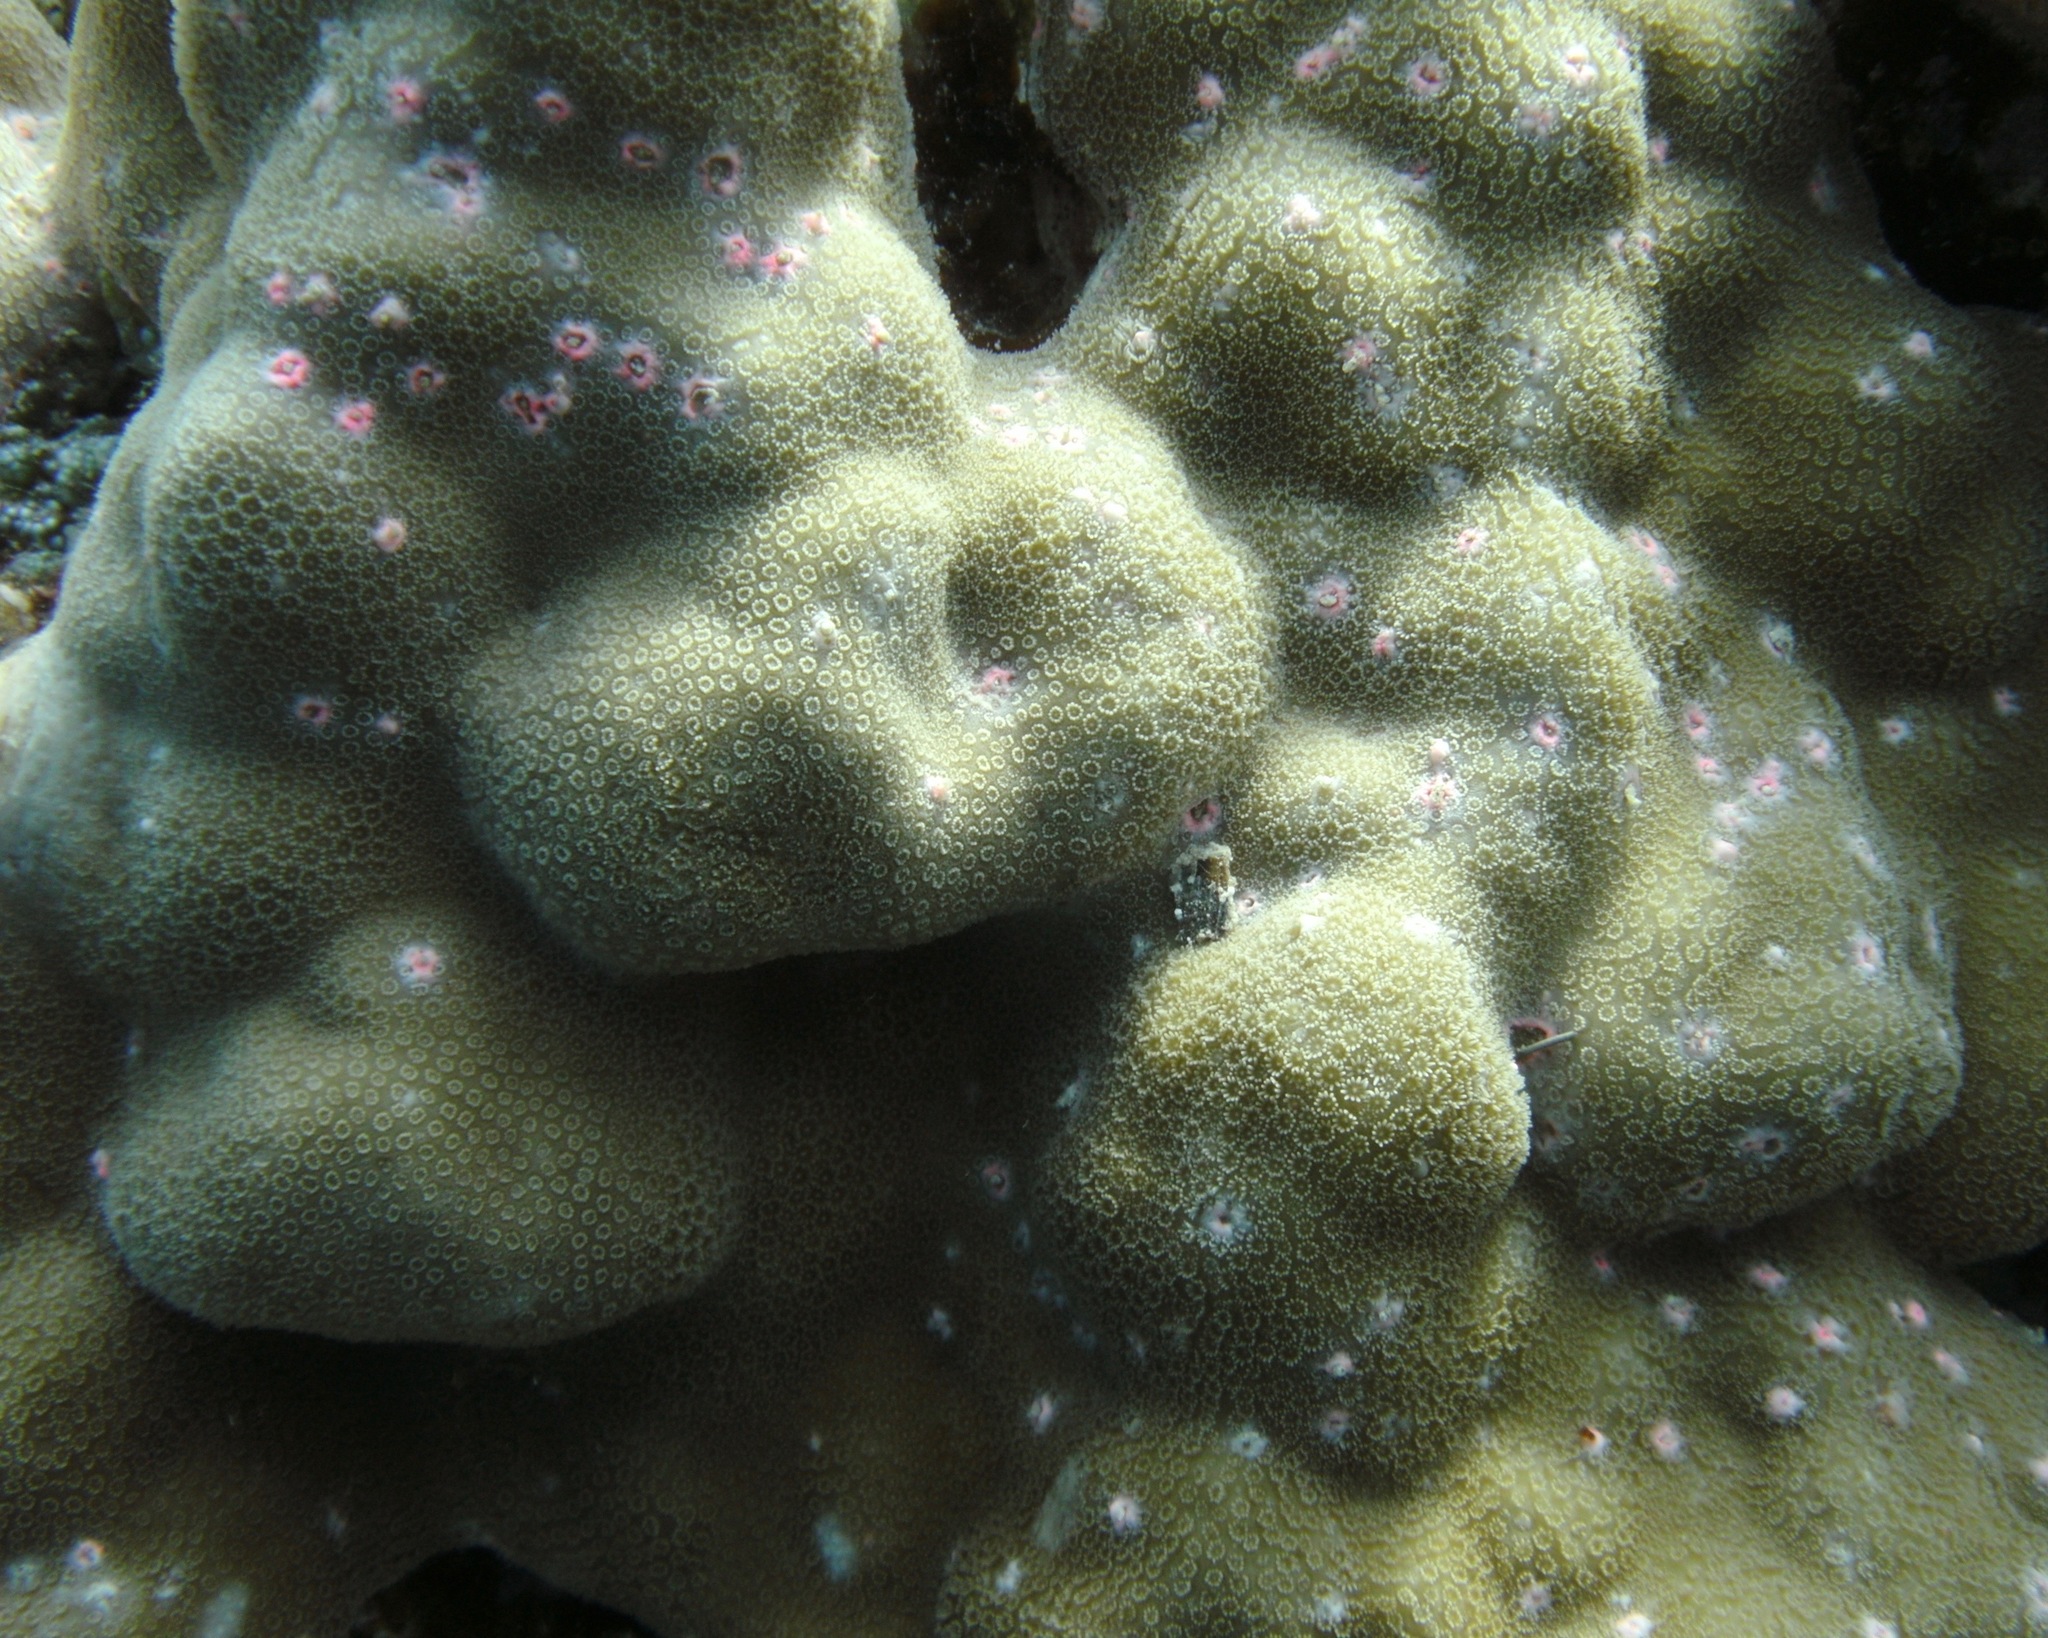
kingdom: Animalia
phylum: Cnidaria
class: Anthozoa
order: Scleractinia
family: Poritidae
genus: Porites
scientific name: Porites
